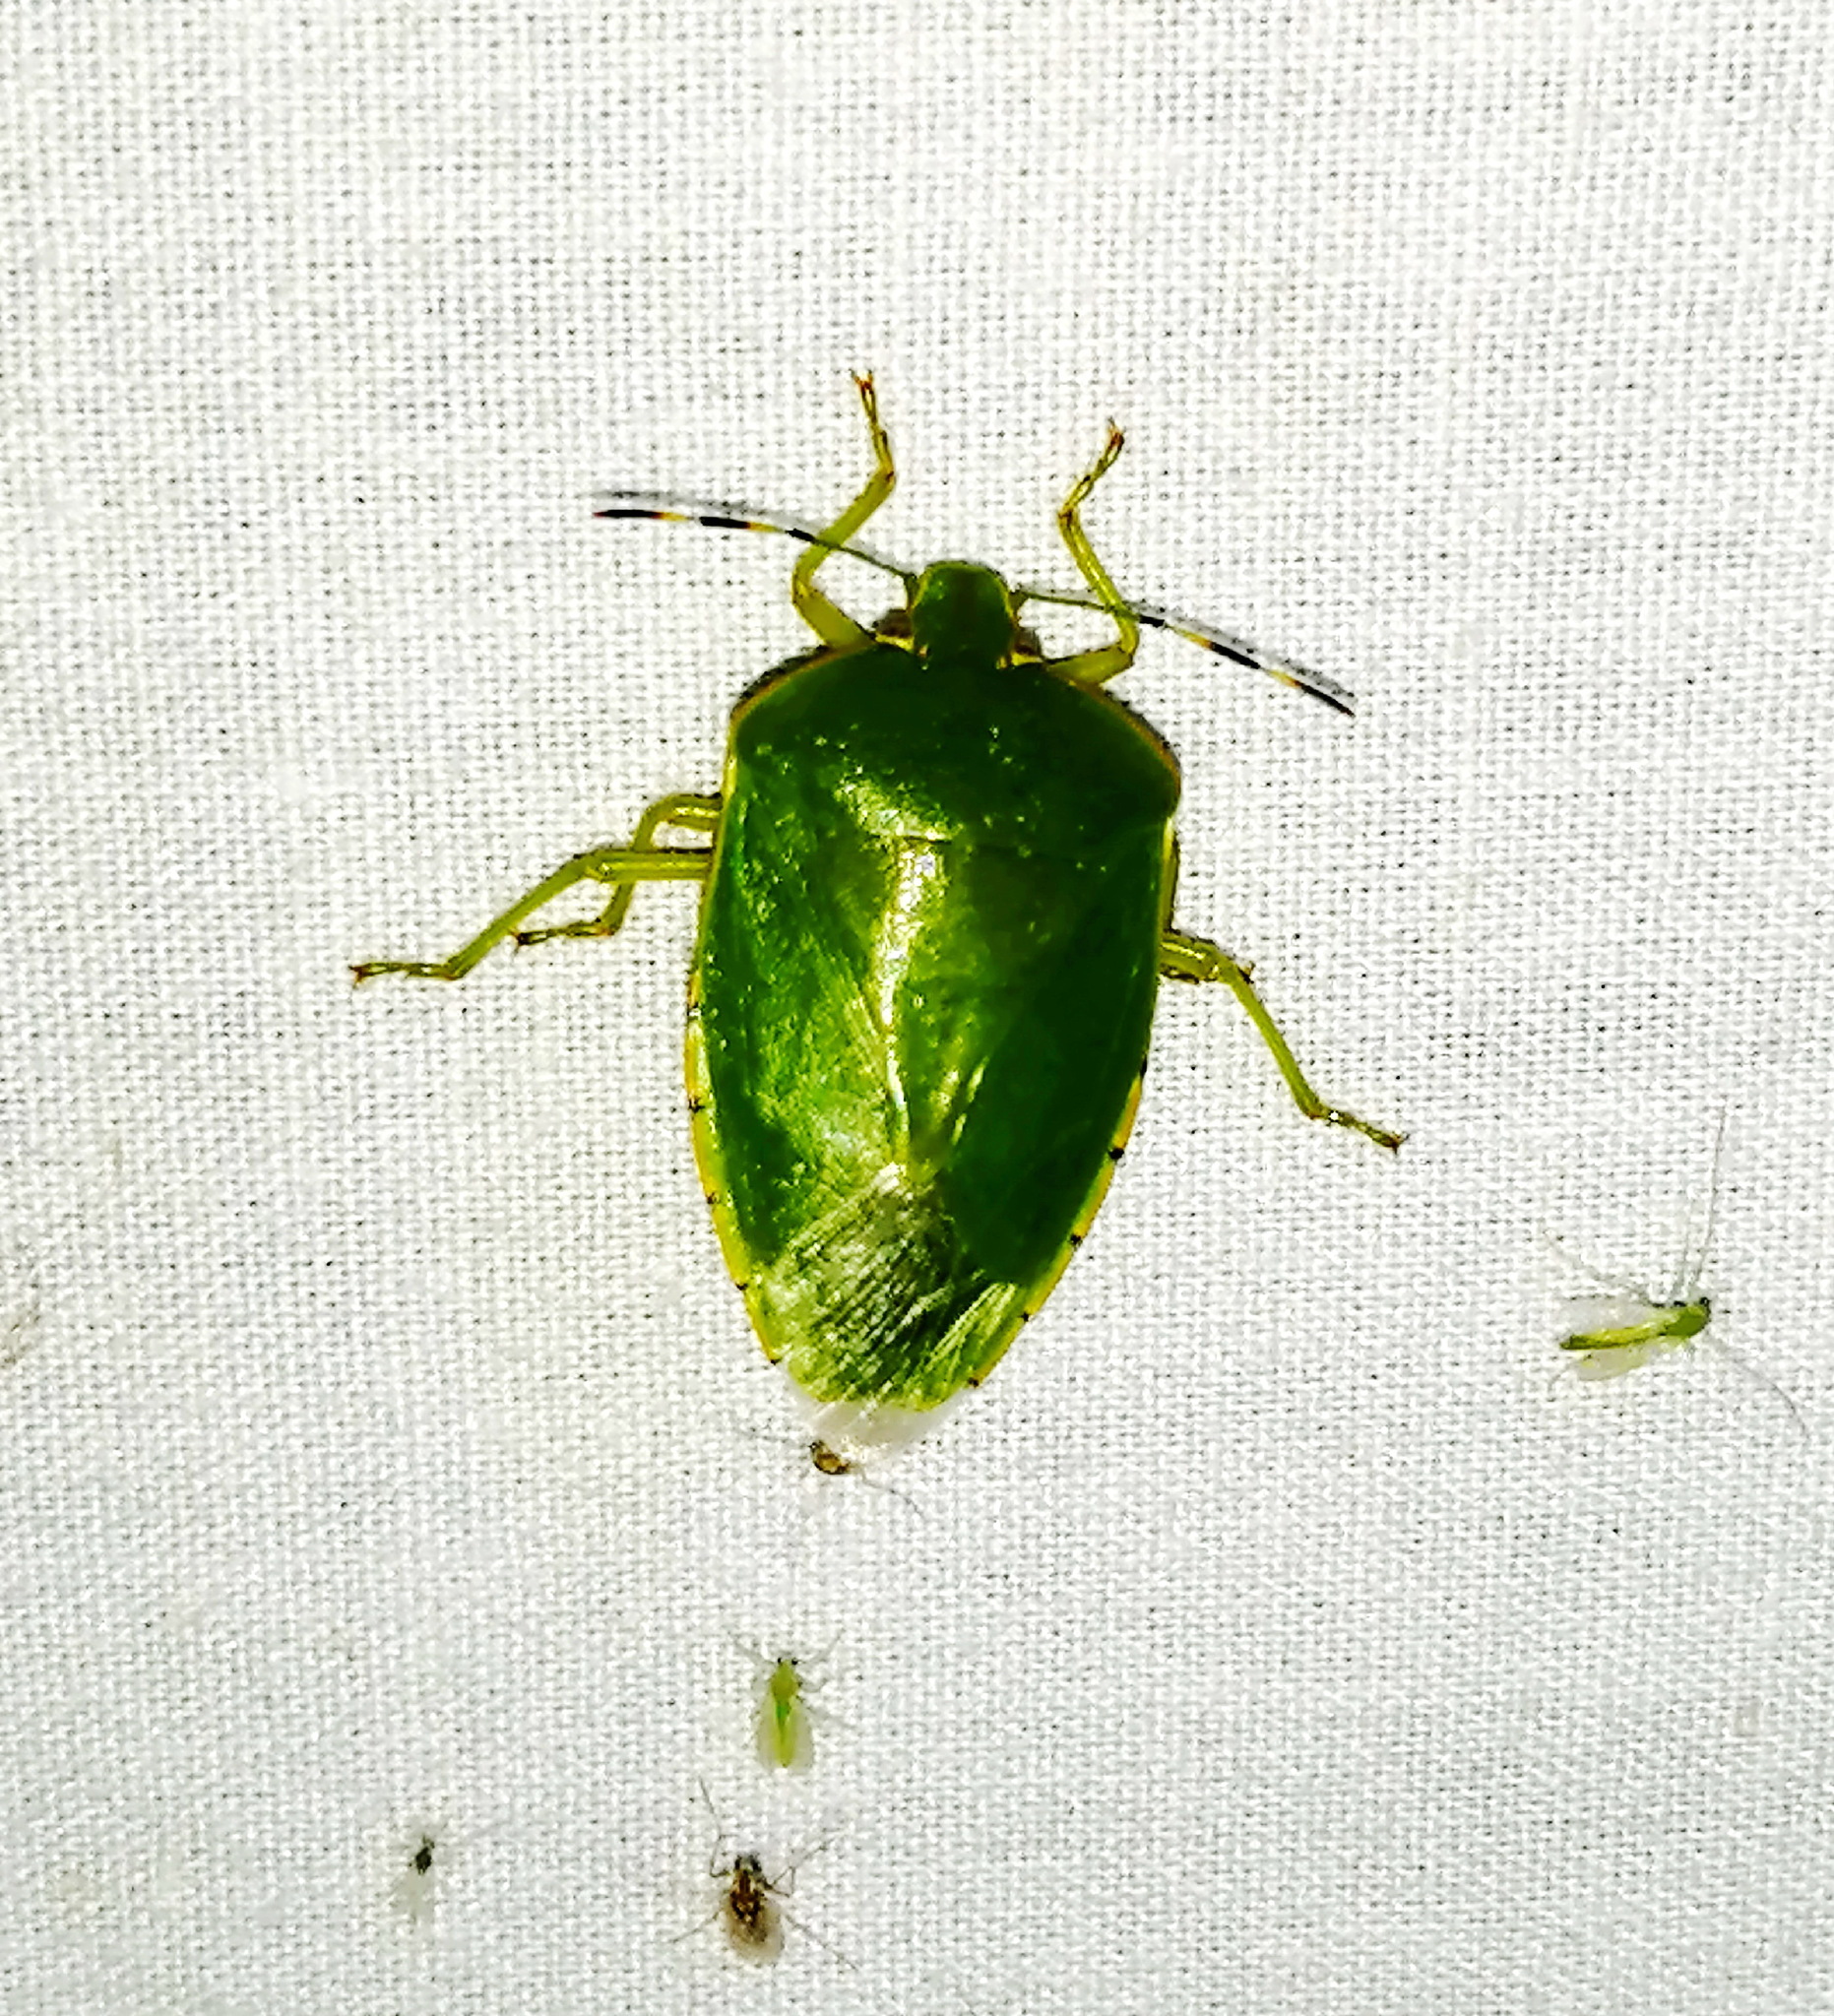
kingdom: Animalia
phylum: Arthropoda
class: Insecta
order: Hemiptera
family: Pentatomidae
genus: Chinavia
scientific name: Chinavia hilaris
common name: Green stink bug
